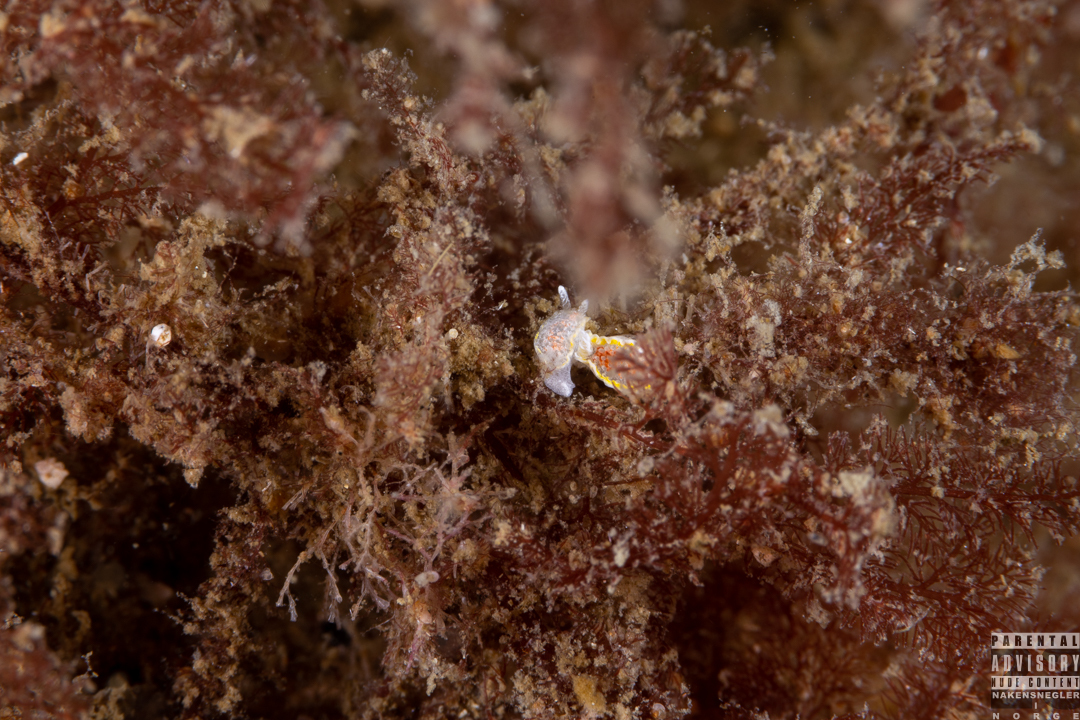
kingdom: Animalia
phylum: Mollusca
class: Gastropoda
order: Nudibranchia
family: Calycidorididae
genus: Diaphorodoris
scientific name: Diaphorodoris luteocincta
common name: Fried egg nudibranch
